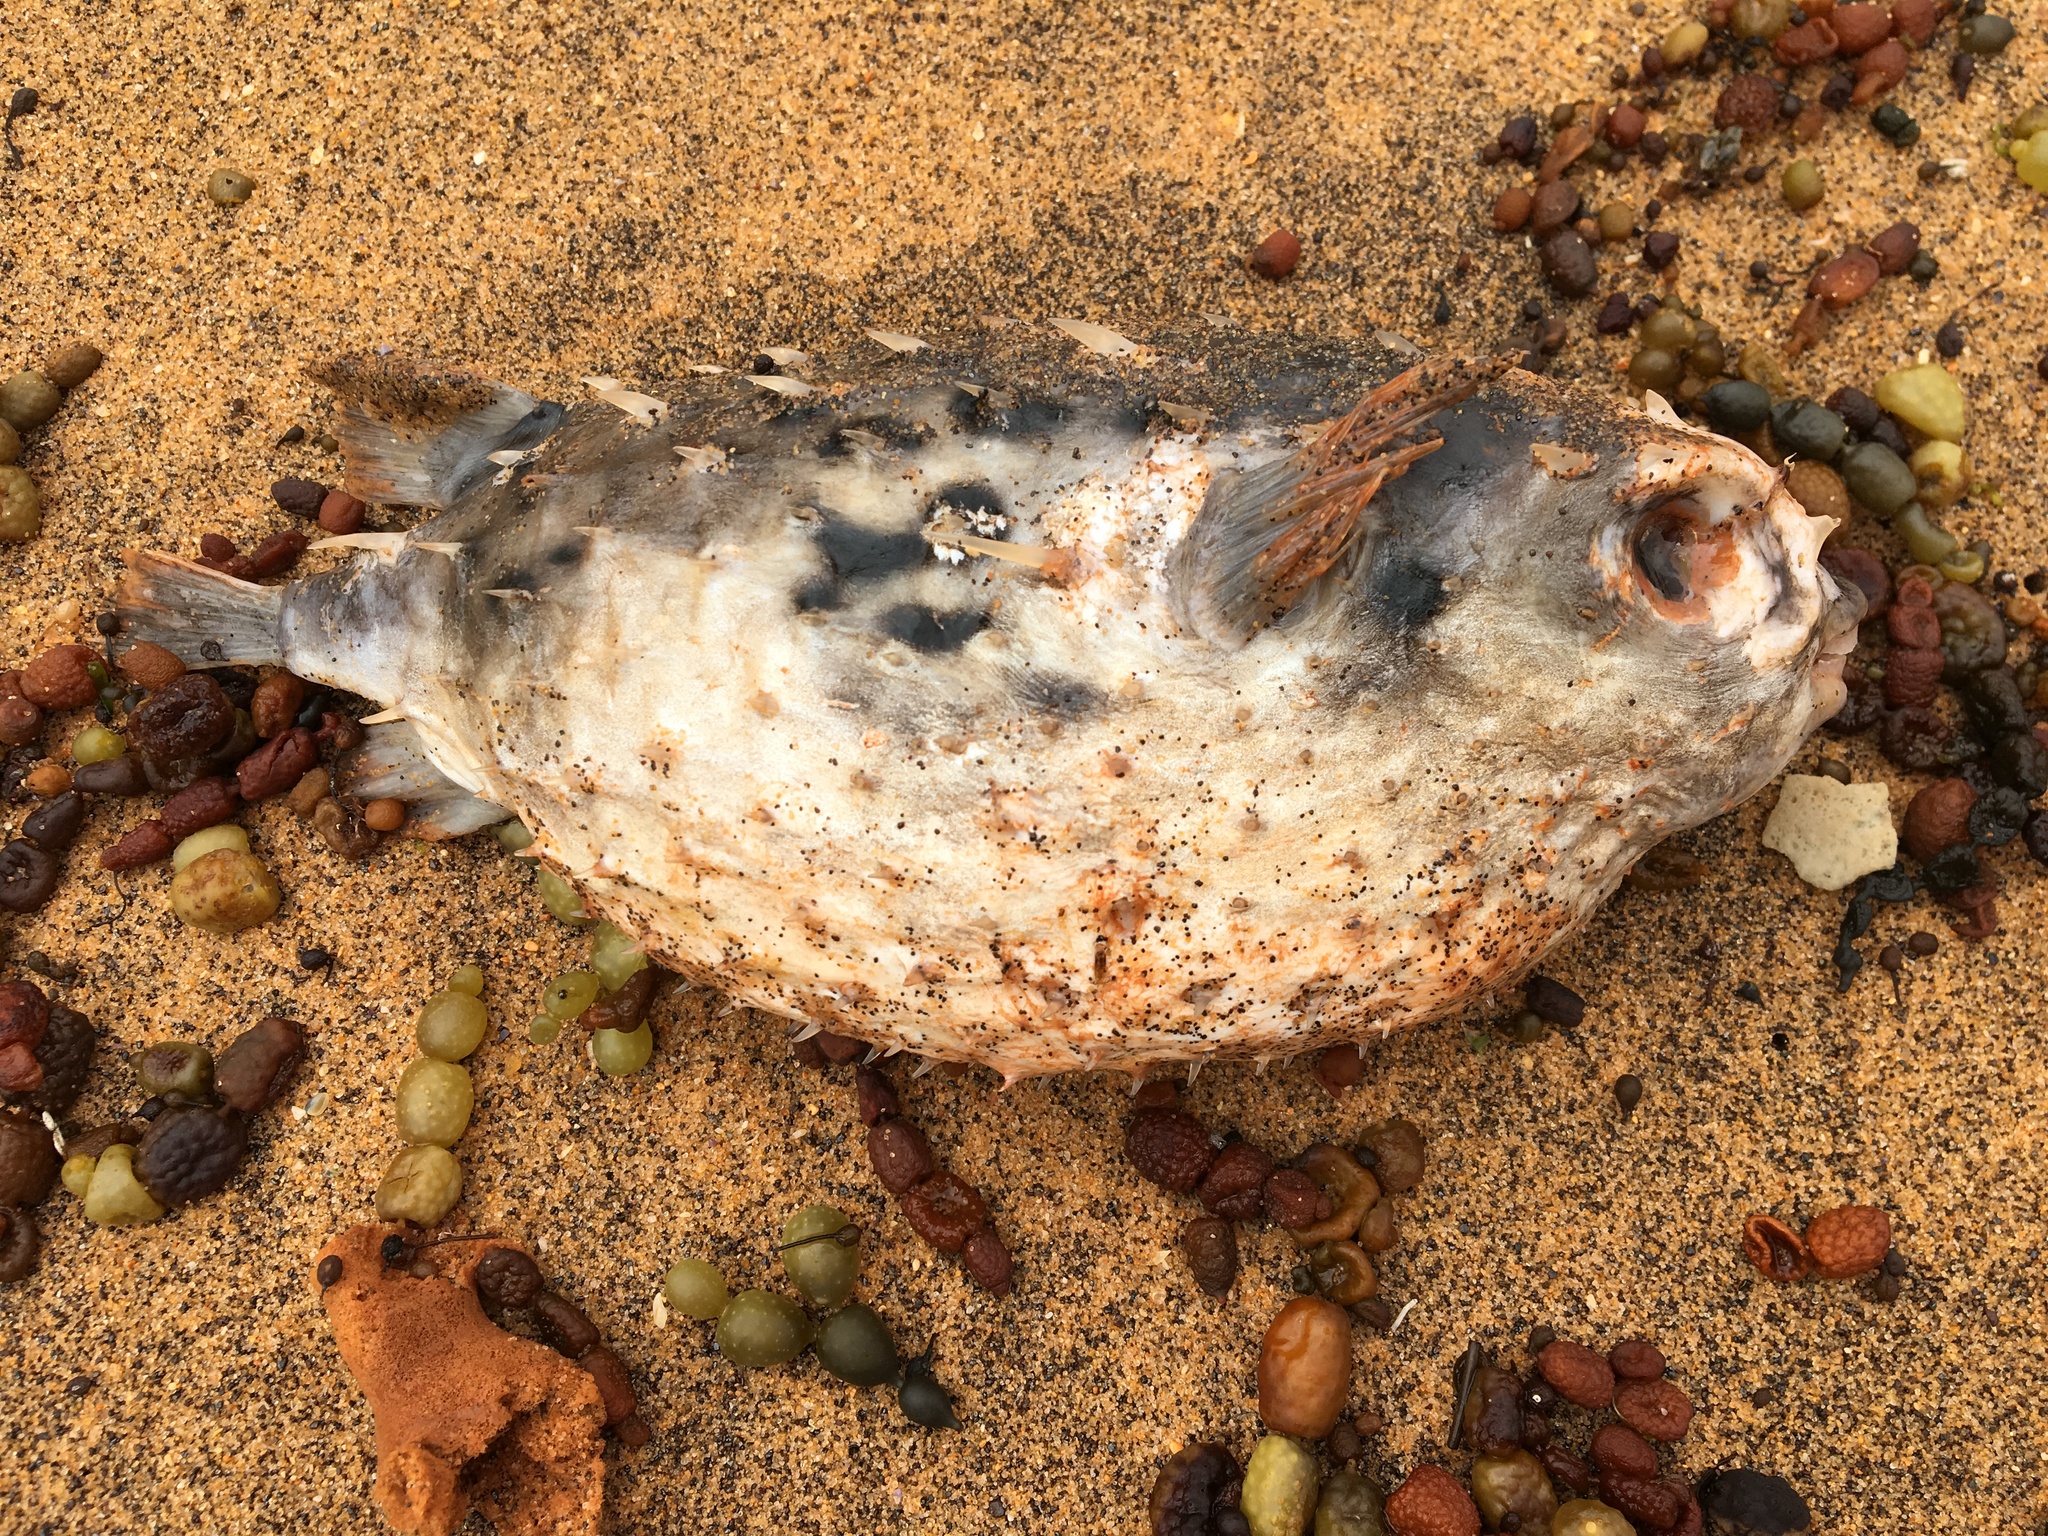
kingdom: Animalia
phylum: Chordata
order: Tetraodontiformes
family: Diodontidae
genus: Allomycterus
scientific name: Allomycterus pilatus
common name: No common name
